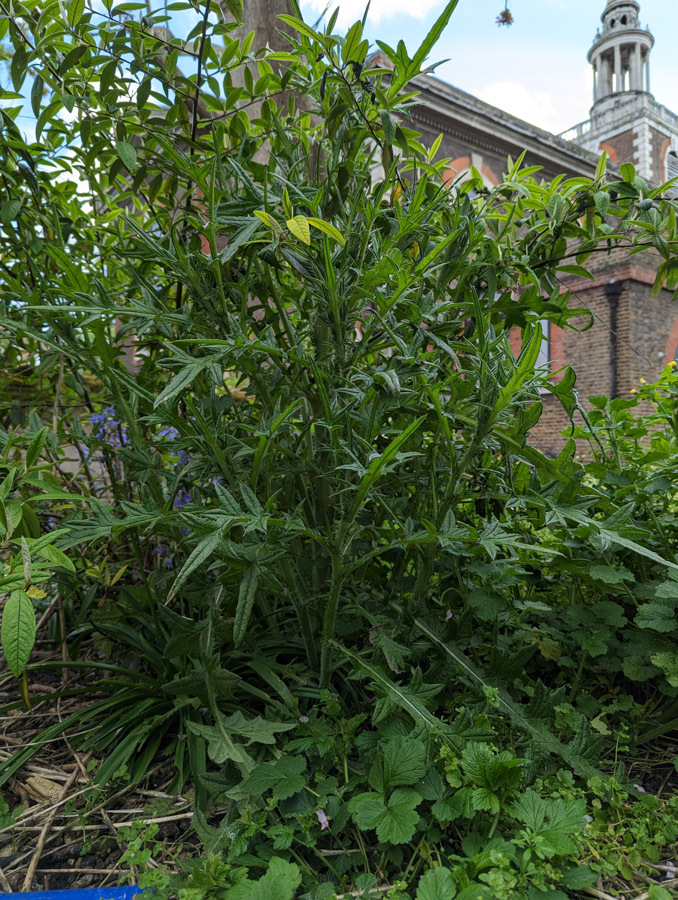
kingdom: Plantae
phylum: Tracheophyta
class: Magnoliopsida
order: Asterales
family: Asteraceae
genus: Cirsium
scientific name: Cirsium vulgare
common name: Bull thistle
